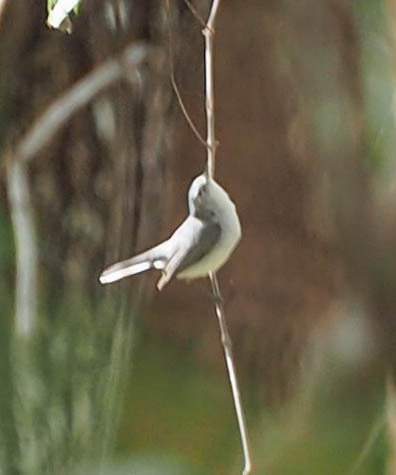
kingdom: Animalia
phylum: Chordata
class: Aves
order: Passeriformes
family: Polioptilidae
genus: Polioptila
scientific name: Polioptila caerulea
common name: Blue-gray gnatcatcher
